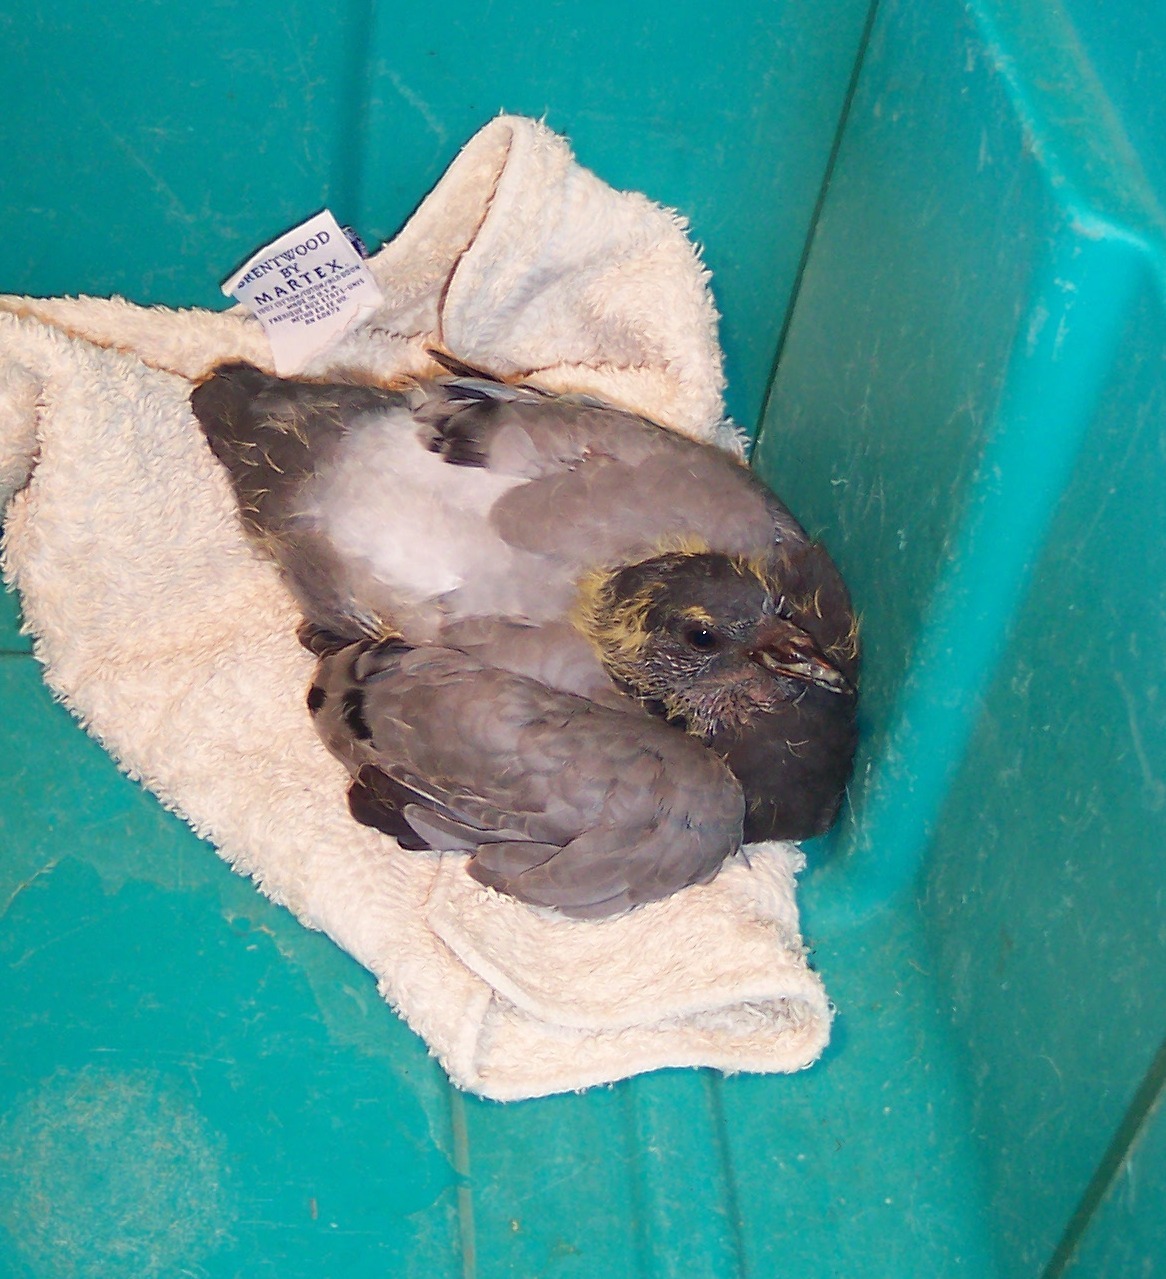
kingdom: Animalia
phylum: Chordata
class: Aves
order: Columbiformes
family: Columbidae
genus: Columba
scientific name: Columba livia
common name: Rock pigeon
